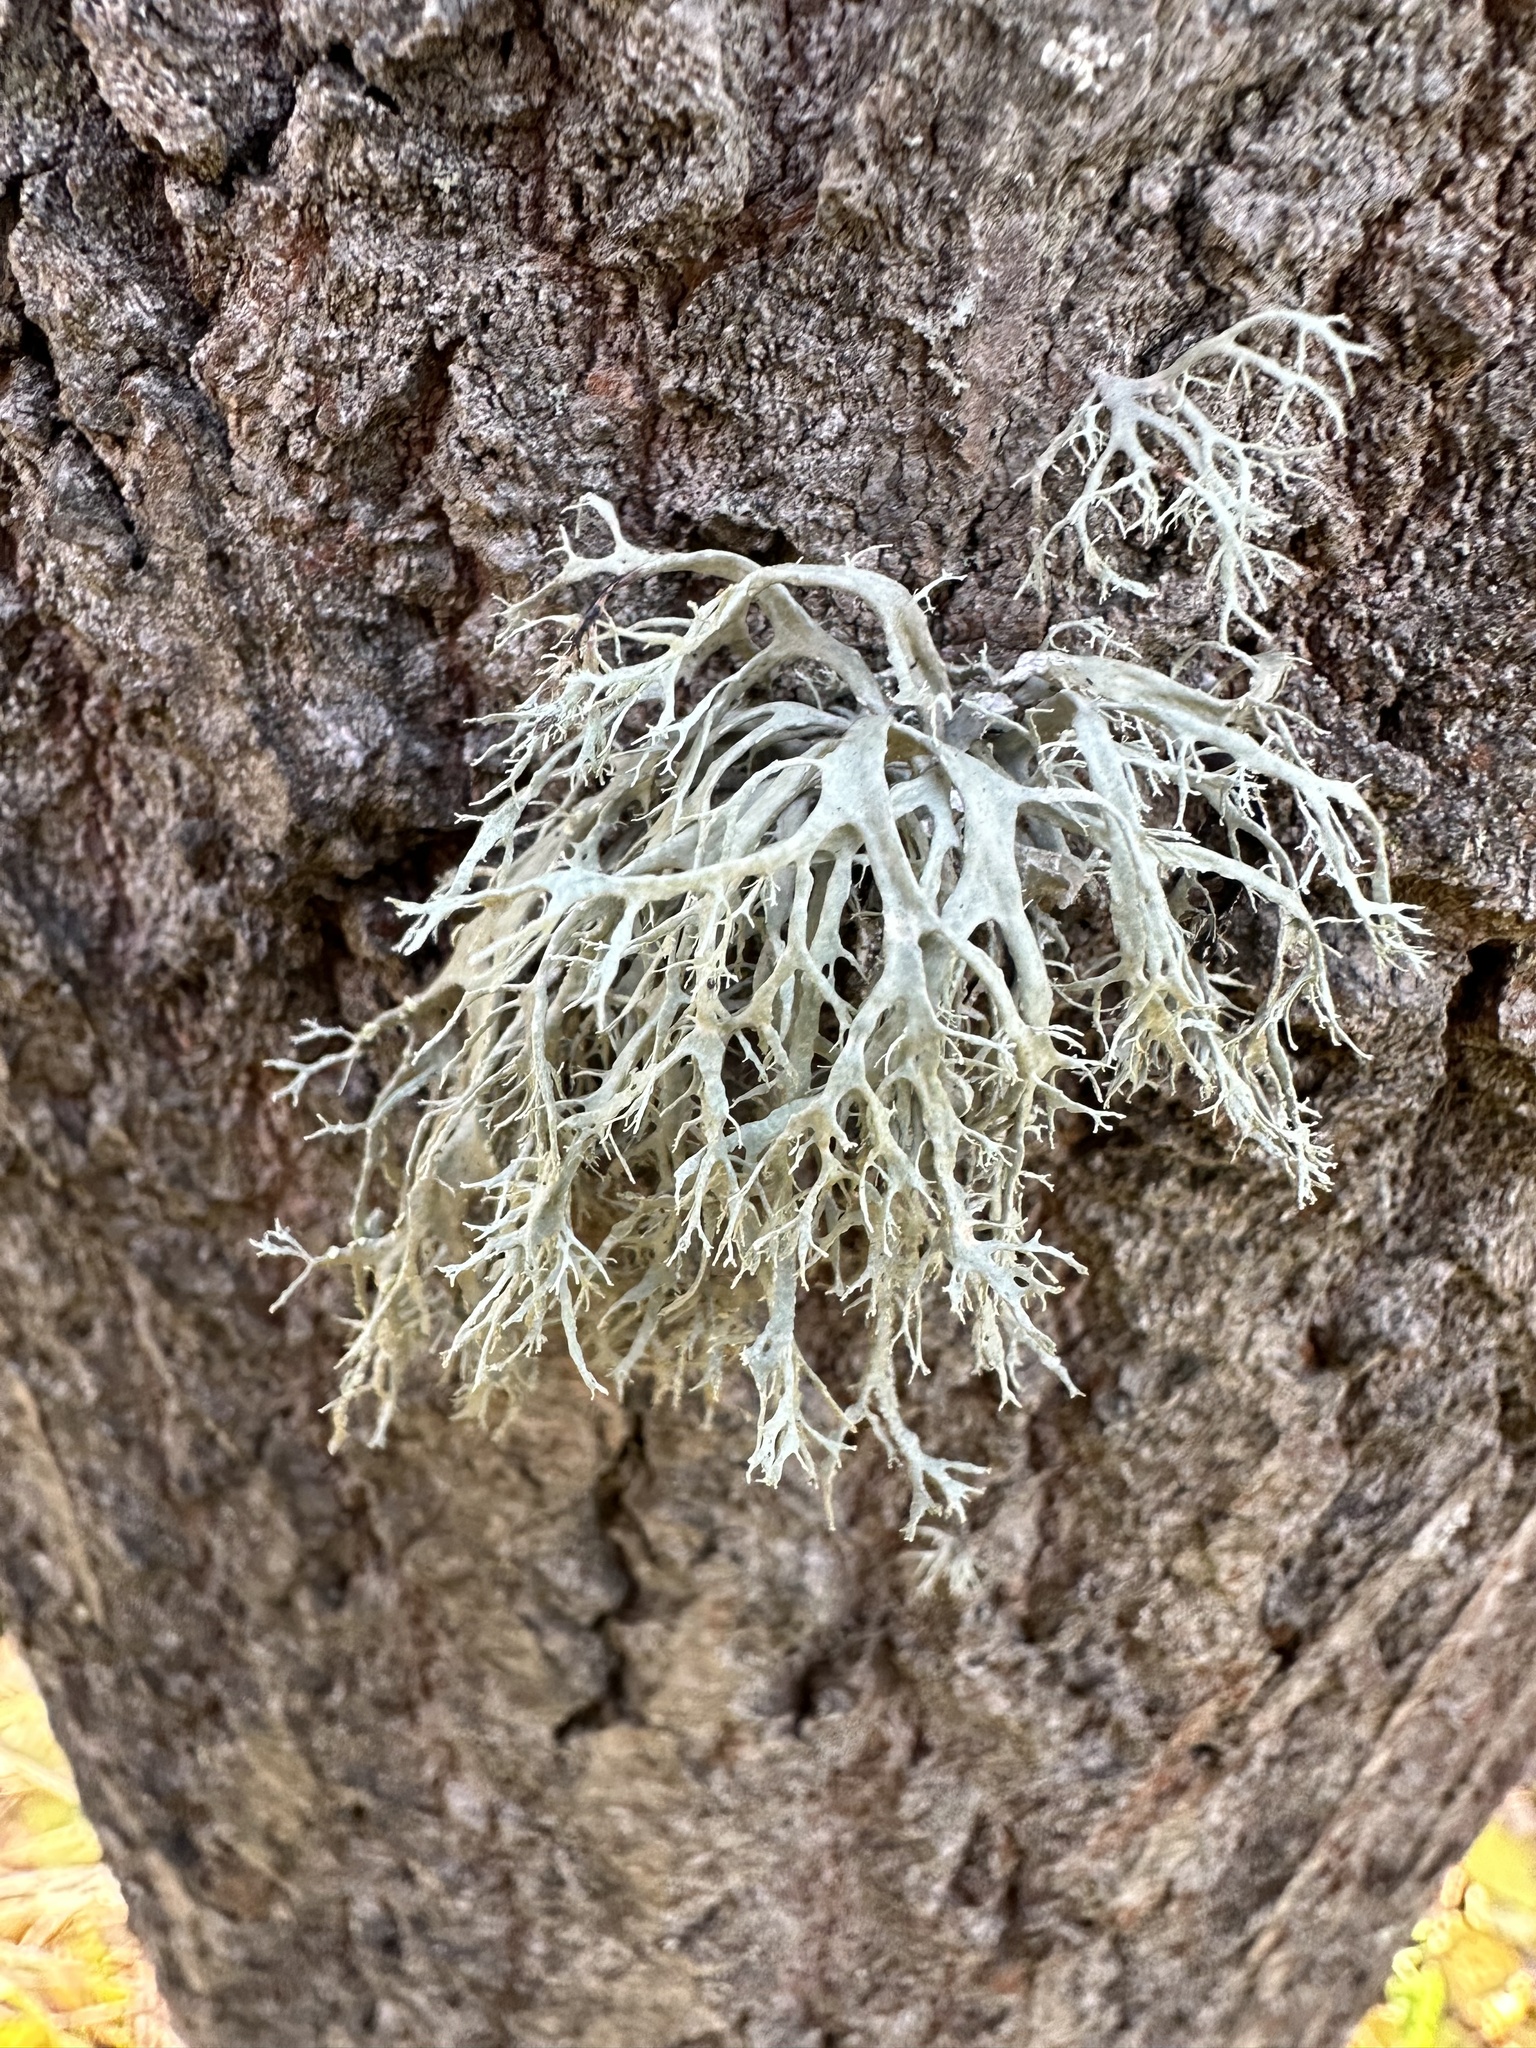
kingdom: Fungi
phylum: Ascomycota
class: Lecanoromycetes
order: Lecanorales
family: Ramalinaceae
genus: Ramalina
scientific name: Ramalina farinacea
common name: Farinose cartilage lichen
